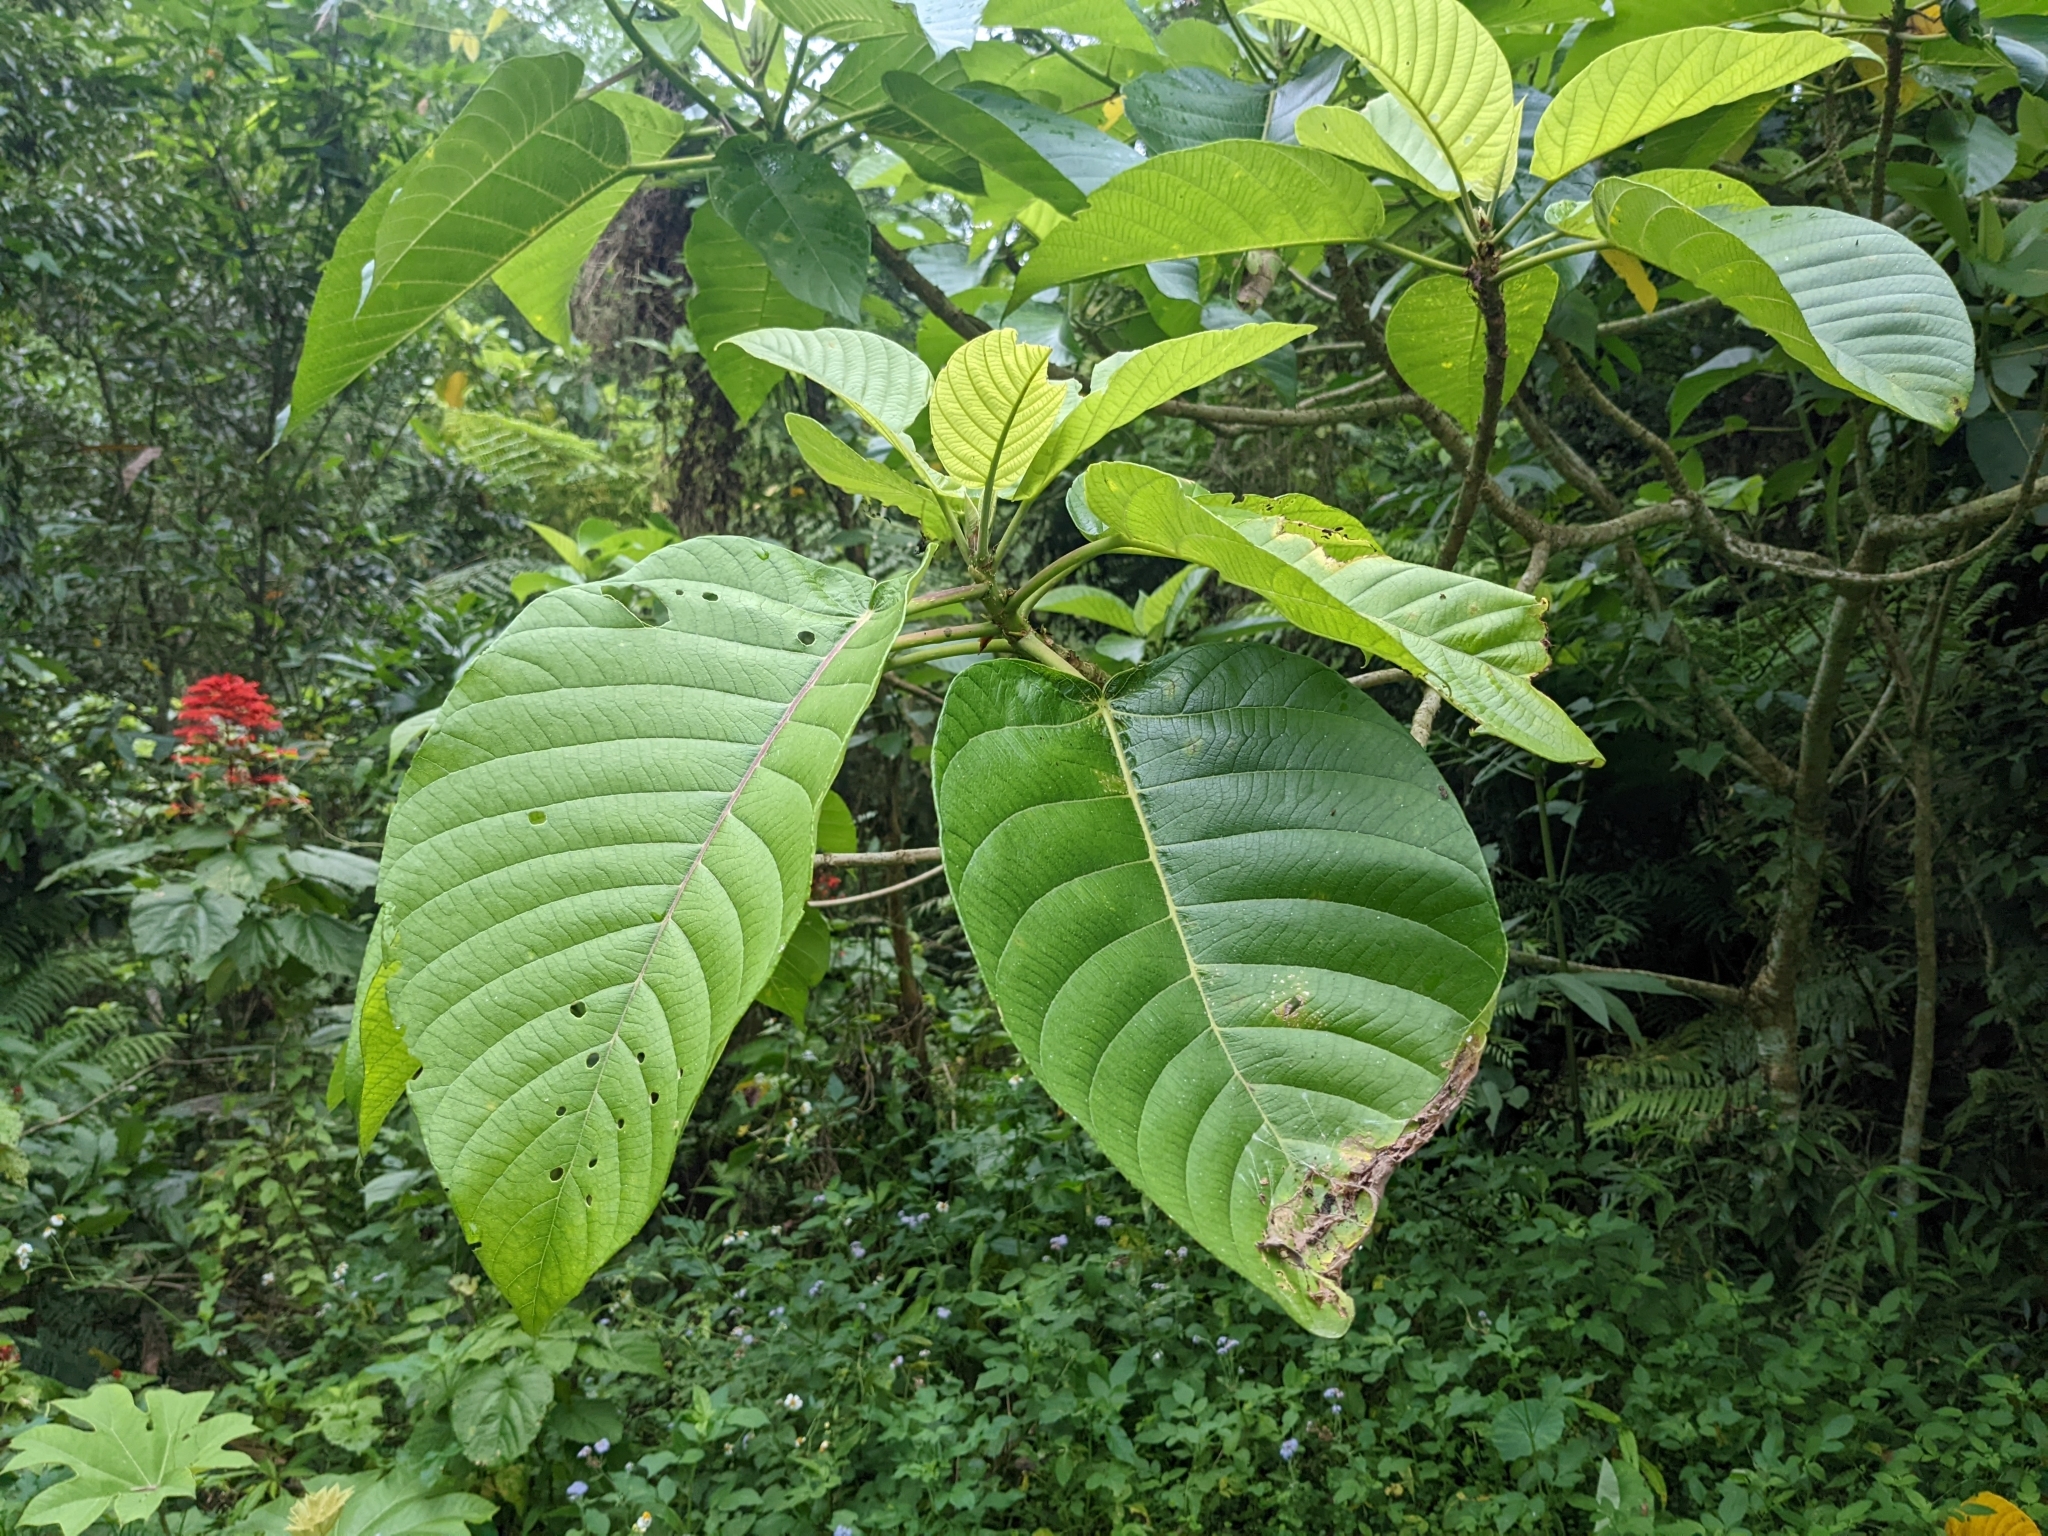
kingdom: Plantae
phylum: Tracheophyta
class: Magnoliopsida
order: Rosales
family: Urticaceae
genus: Dendrocnide
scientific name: Dendrocnide meyeniana
